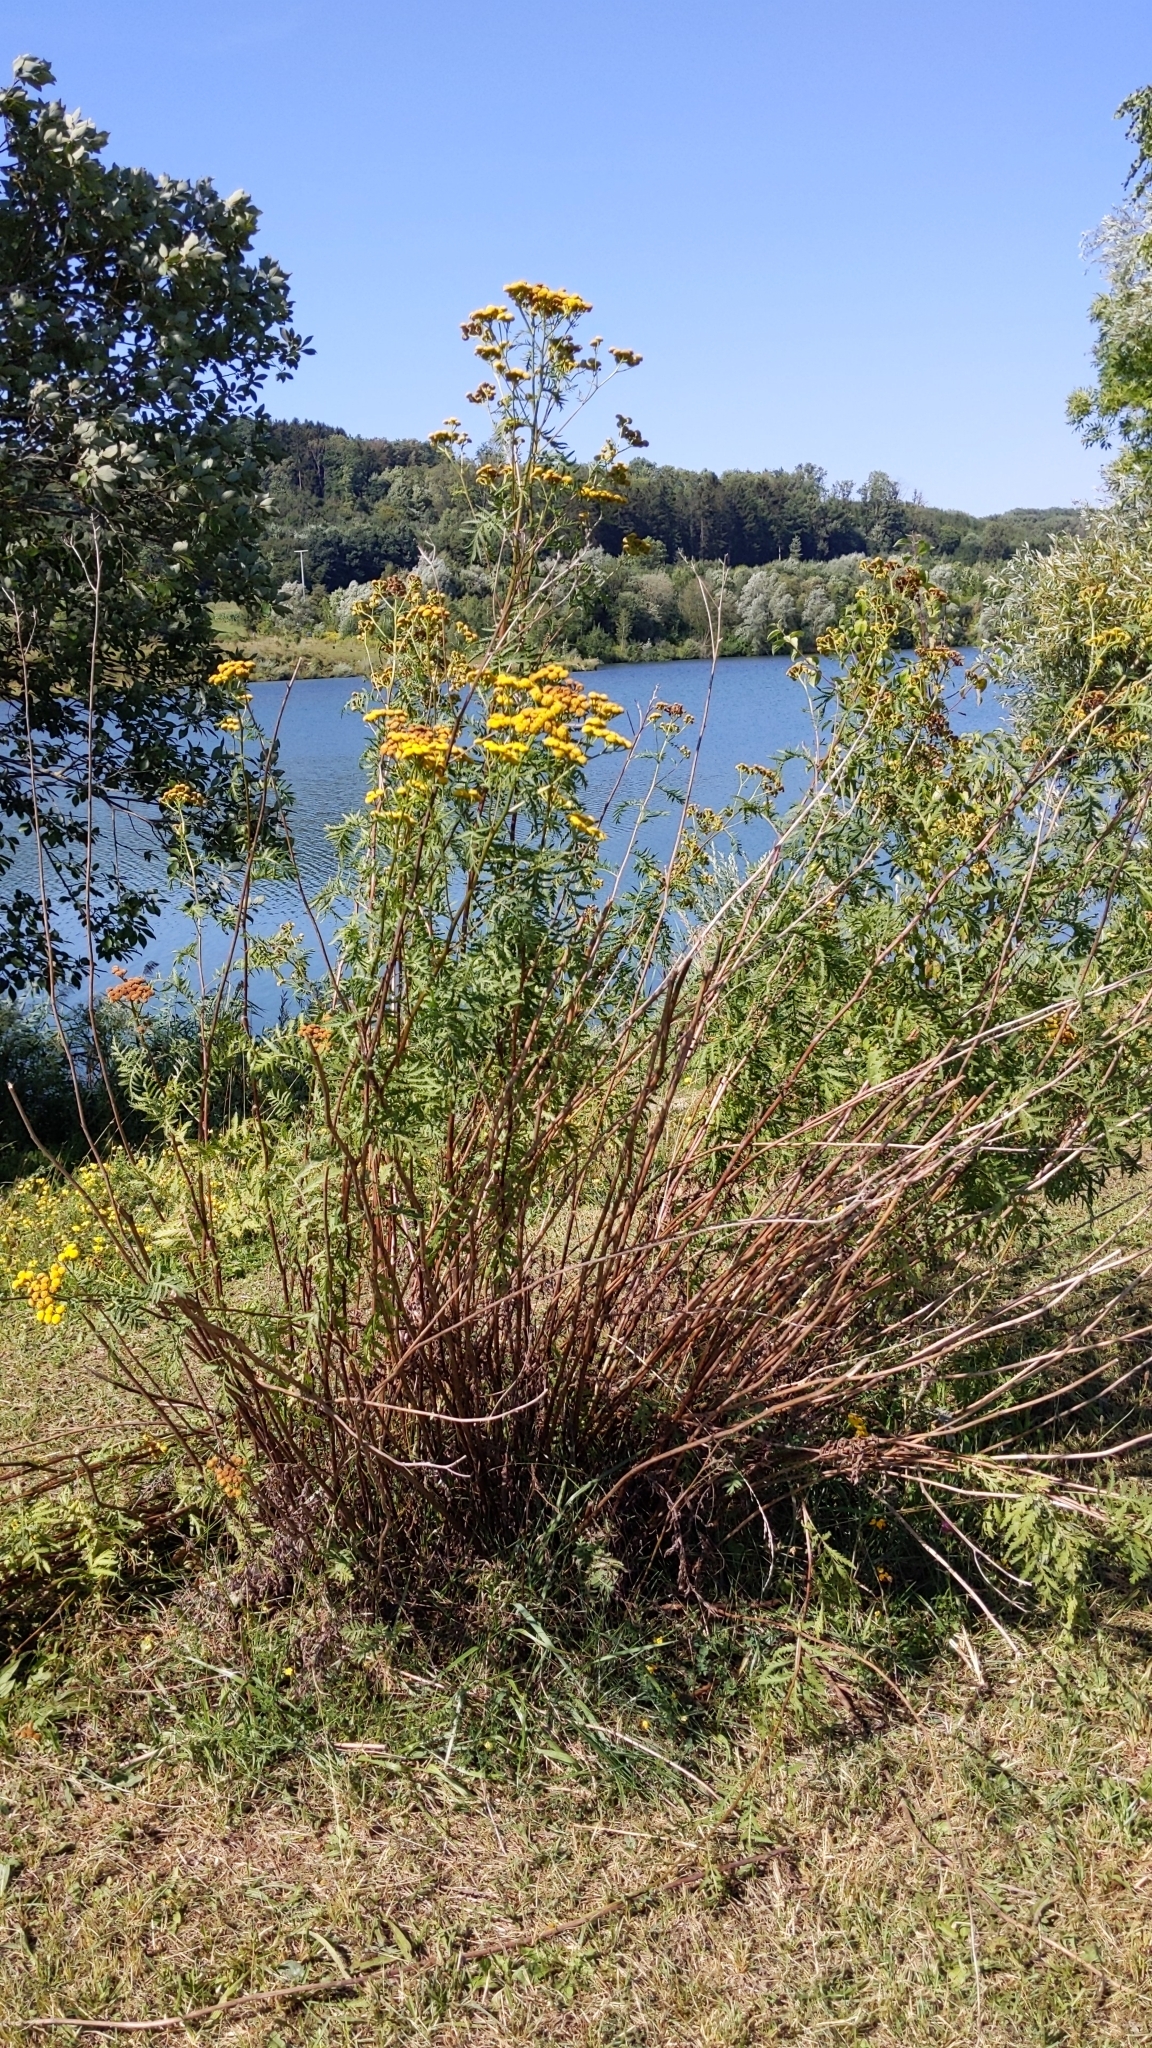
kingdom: Plantae
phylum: Tracheophyta
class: Magnoliopsida
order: Asterales
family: Asteraceae
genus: Tanacetum
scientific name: Tanacetum vulgare
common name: Common tansy
